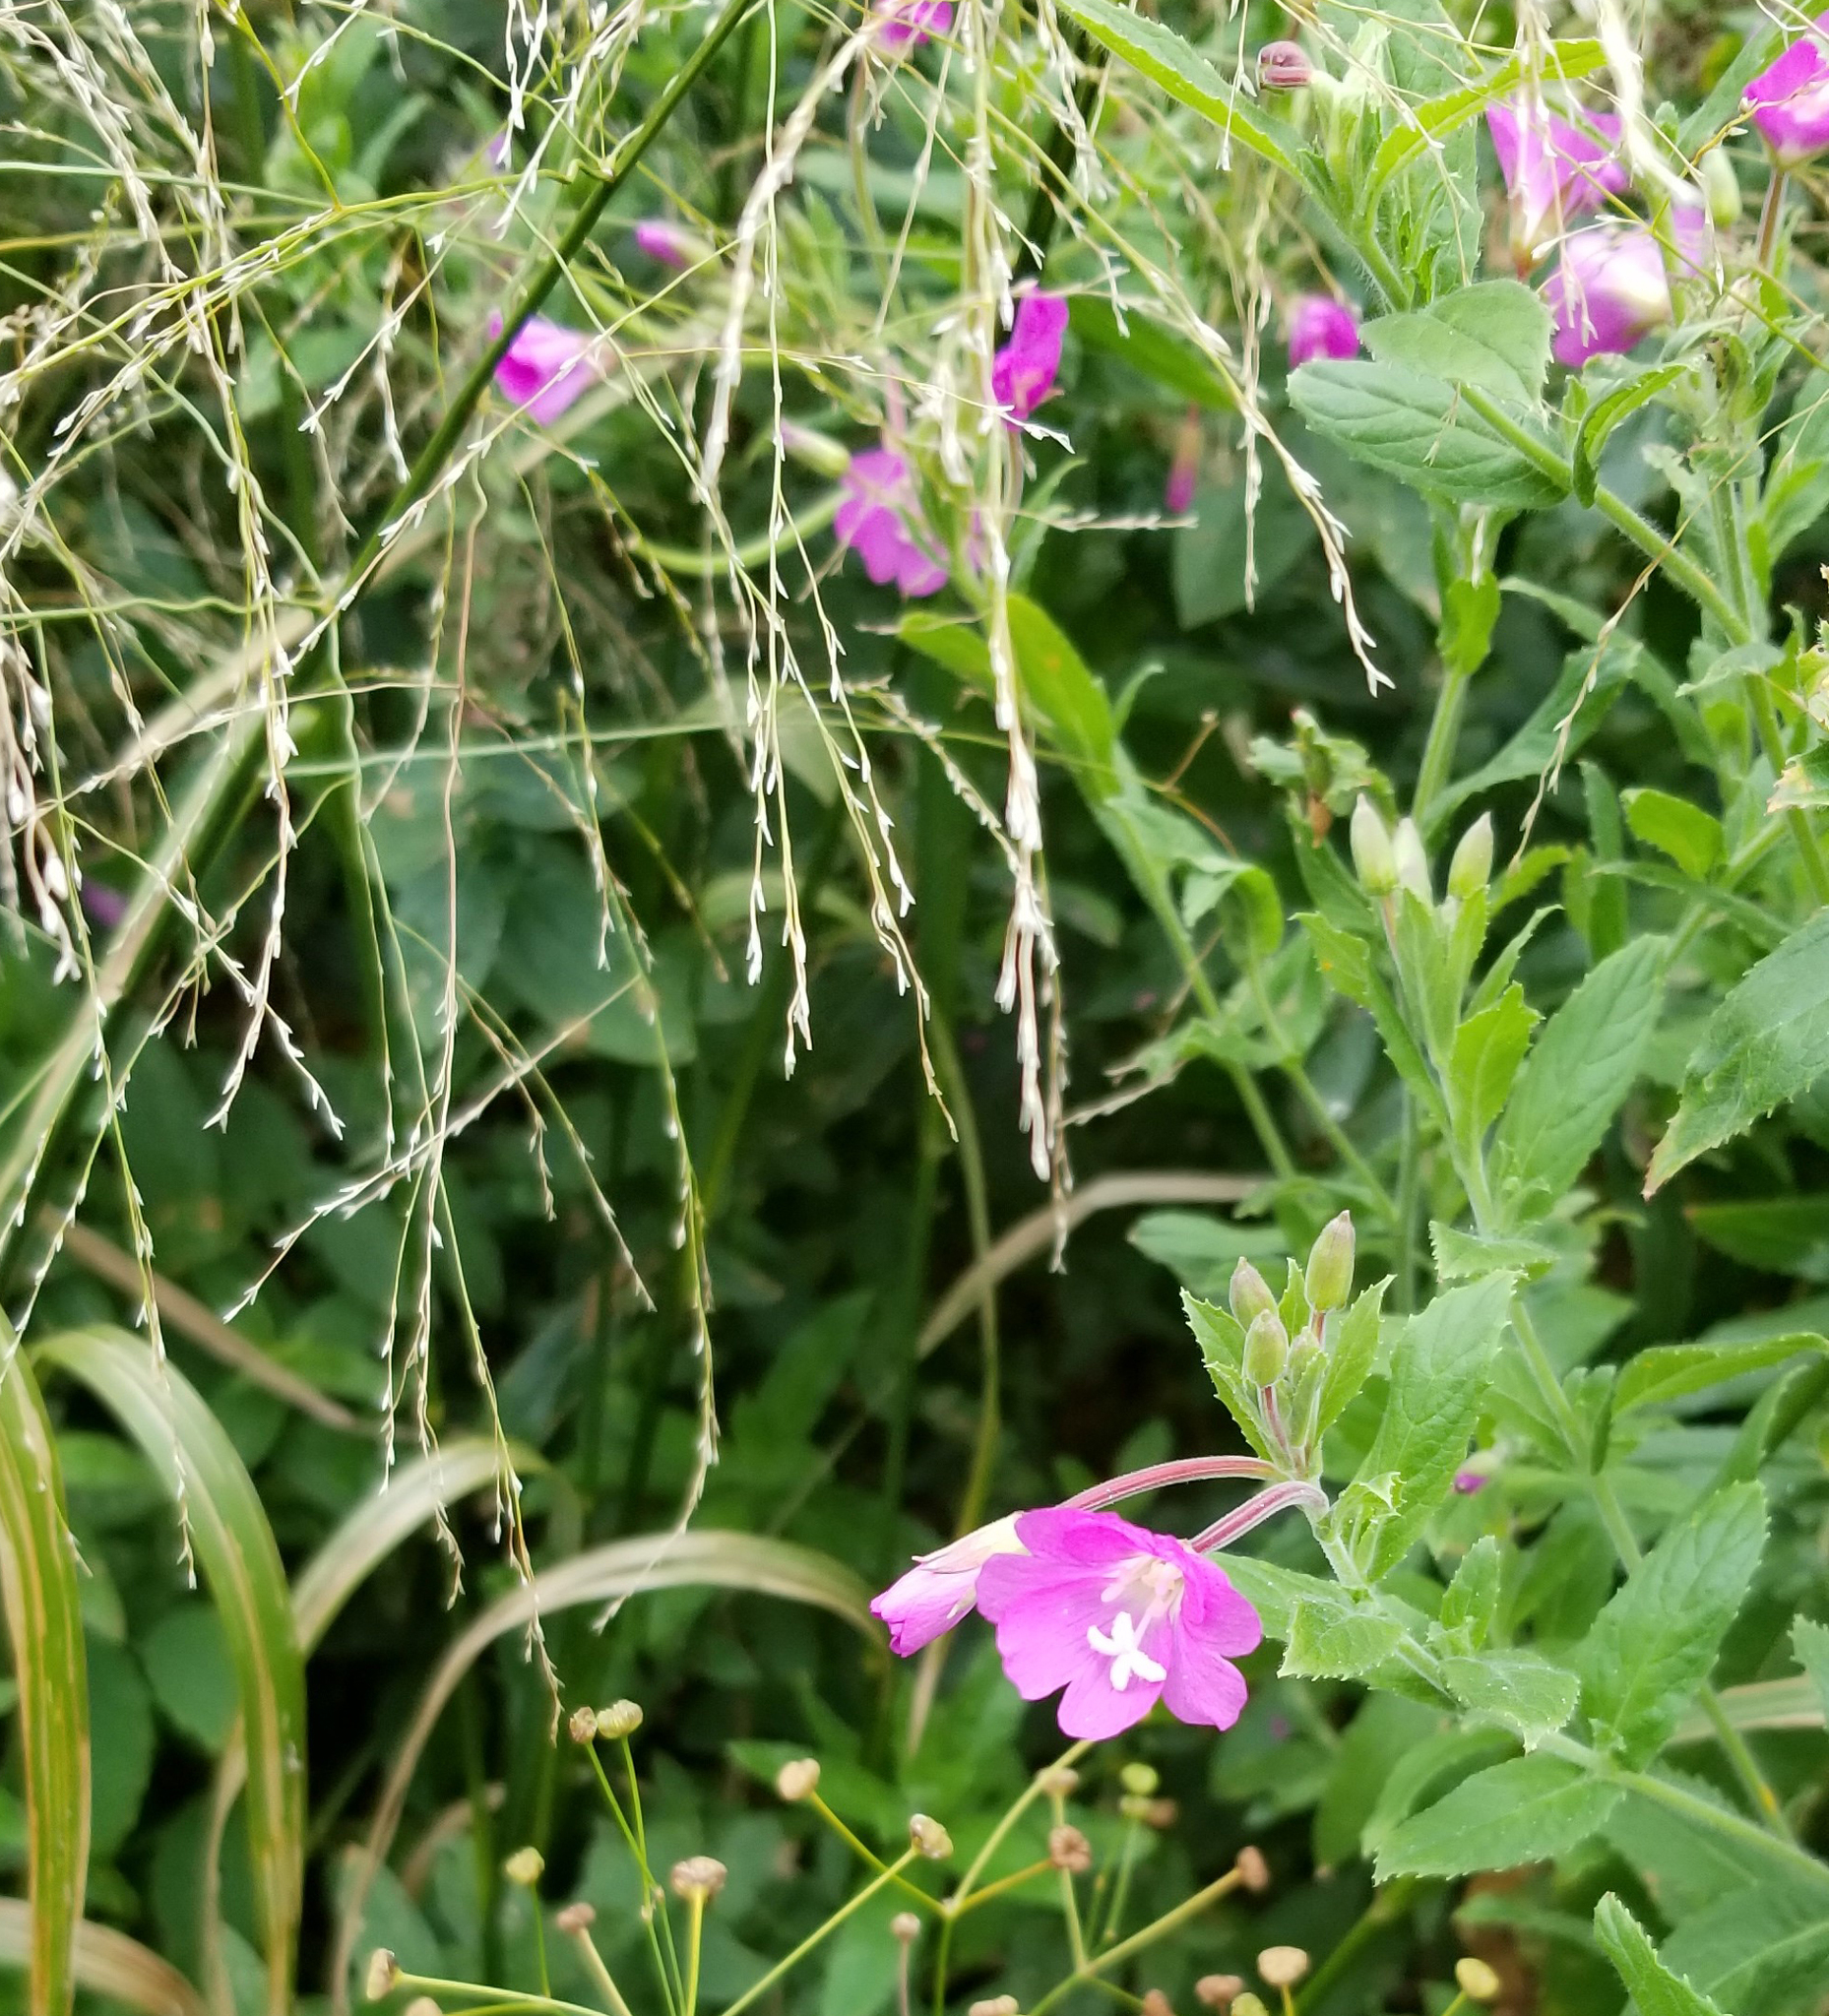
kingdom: Plantae
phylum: Tracheophyta
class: Magnoliopsida
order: Myrtales
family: Onagraceae
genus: Epilobium
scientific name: Epilobium hirsutum
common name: Great willowherb
